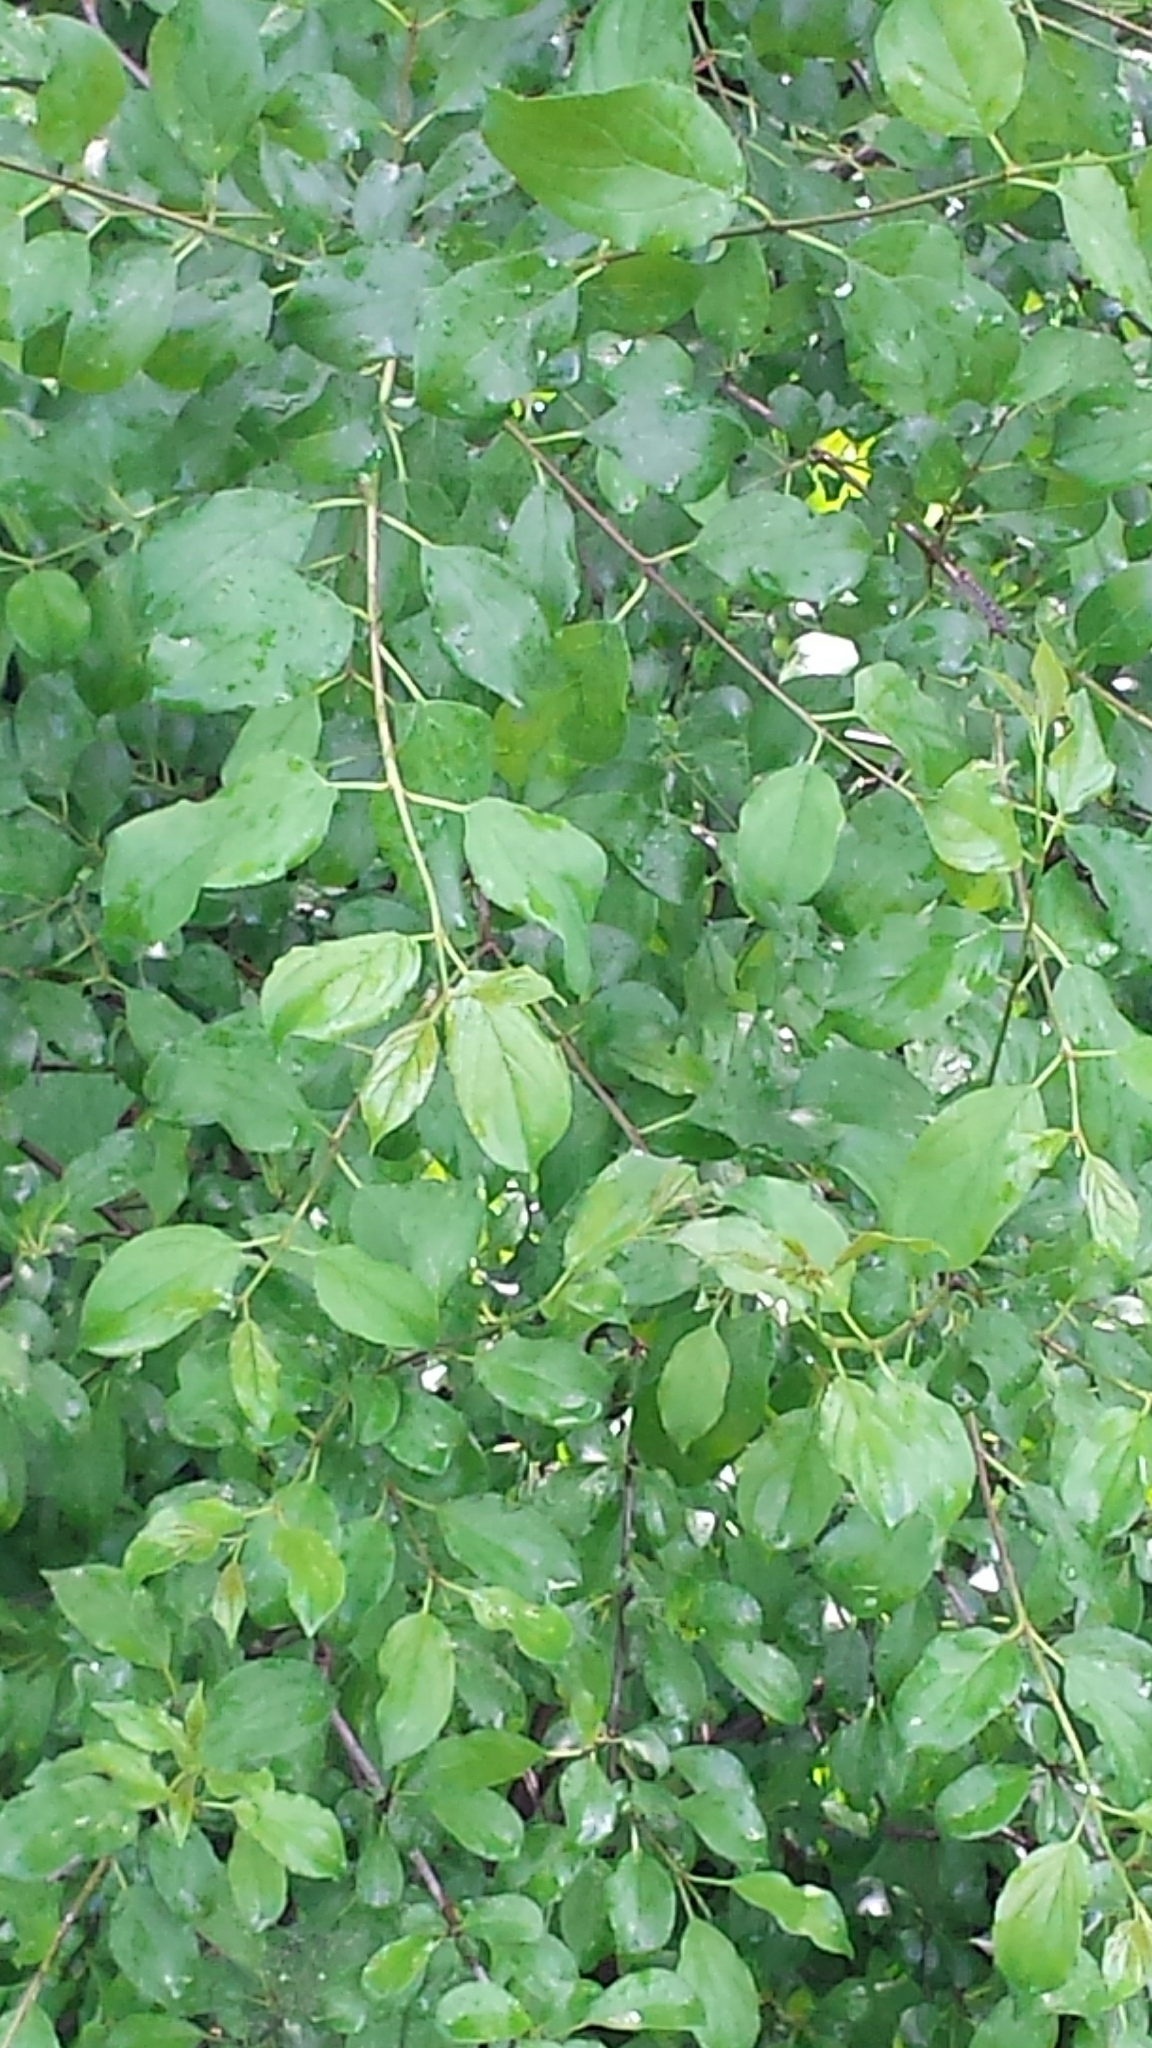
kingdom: Plantae
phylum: Tracheophyta
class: Magnoliopsida
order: Rosales
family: Rhamnaceae
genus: Rhamnus
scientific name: Rhamnus cathartica
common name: Common buckthorn
